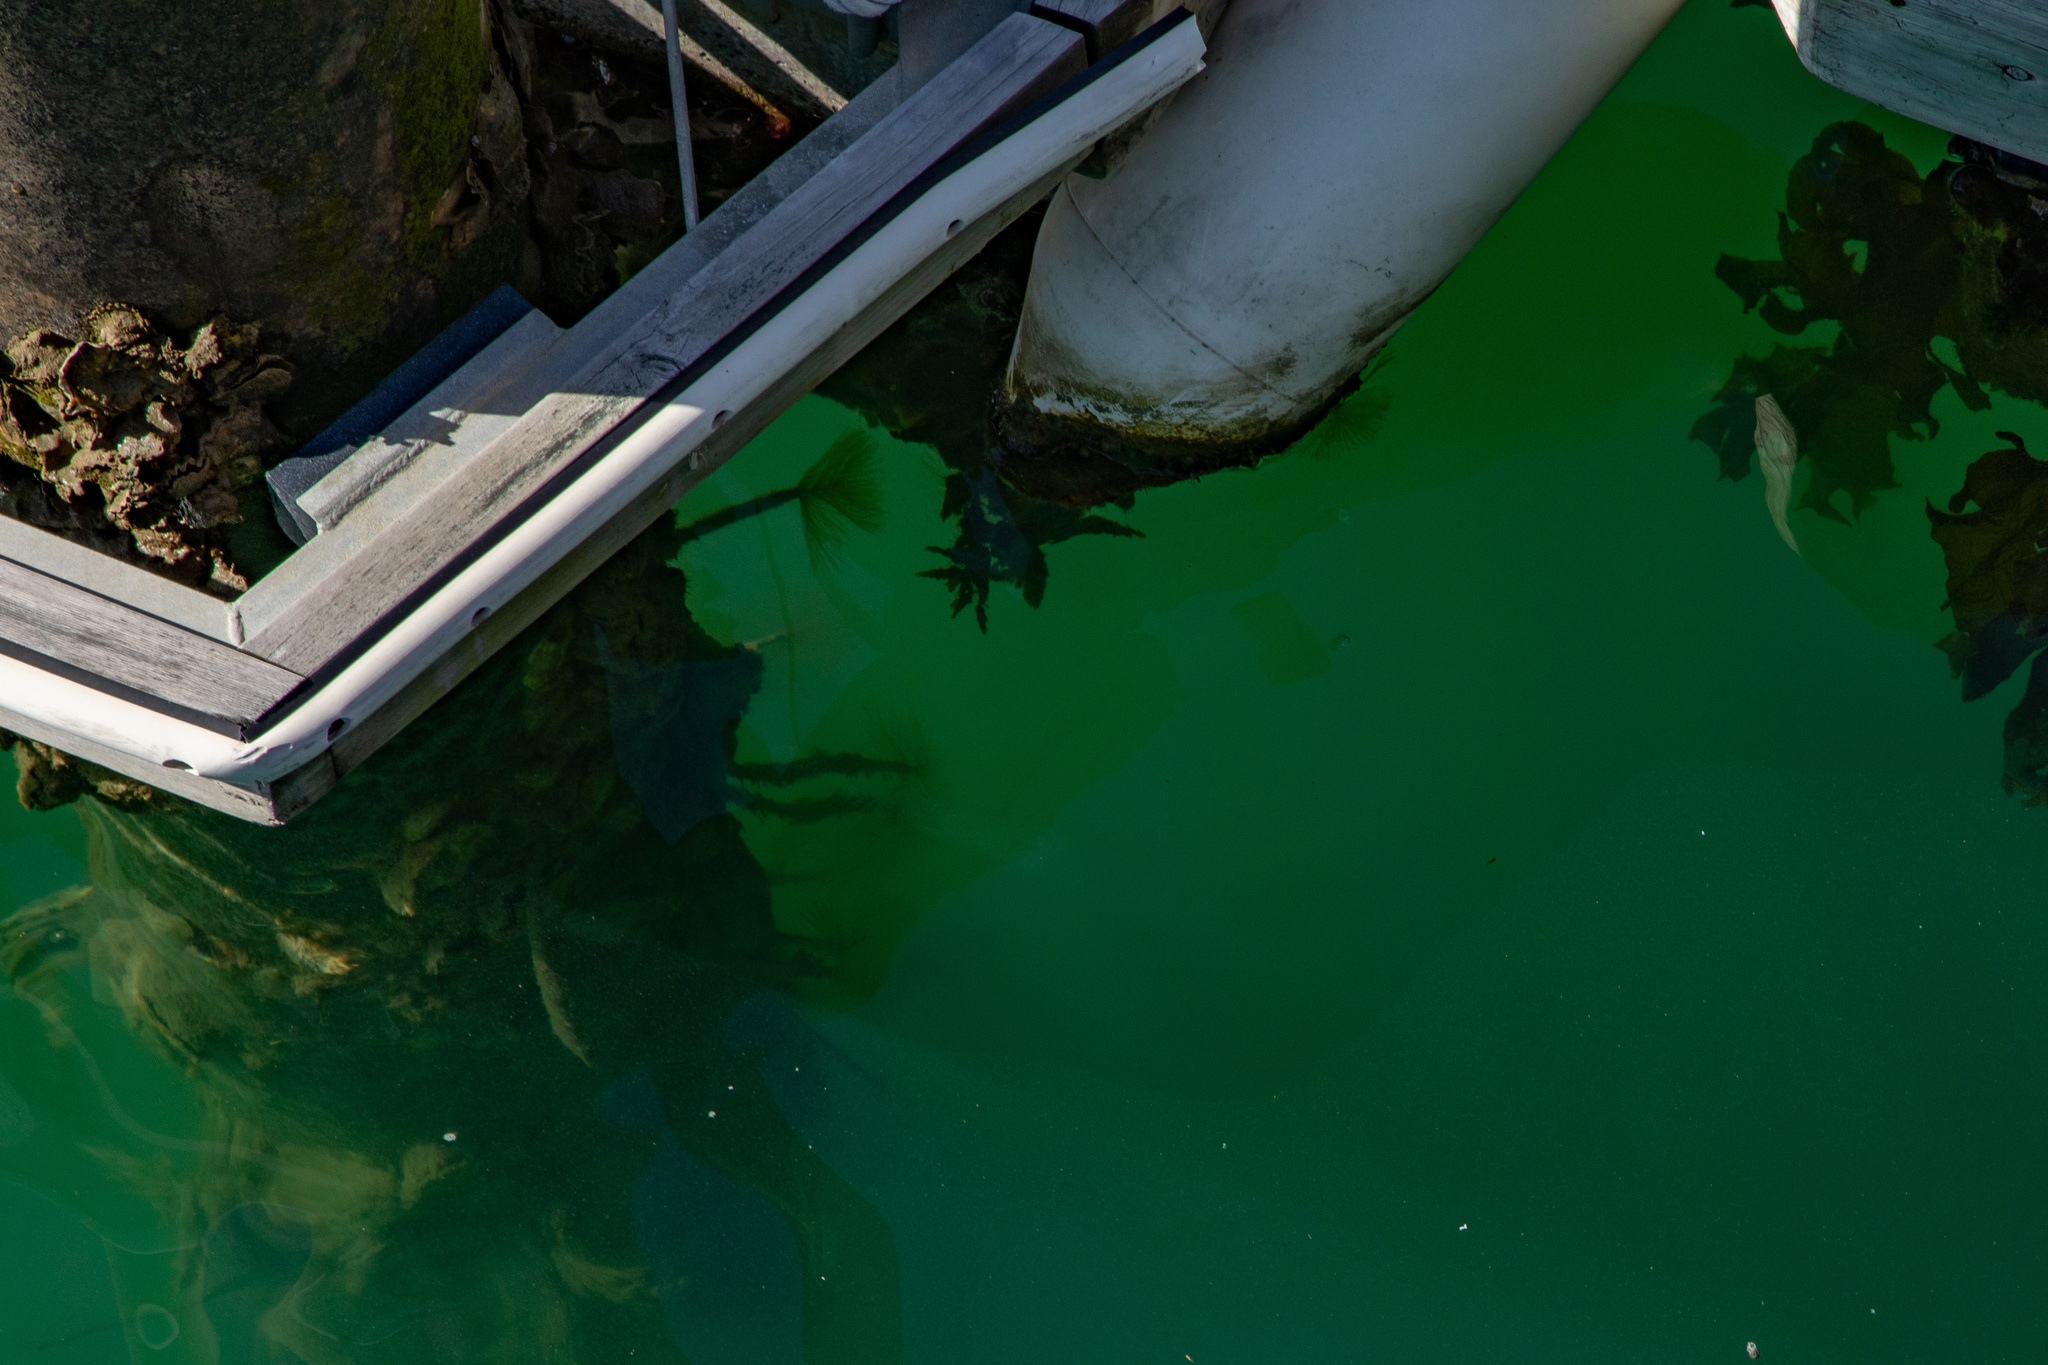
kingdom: Animalia
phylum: Annelida
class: Polychaeta
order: Sabellida
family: Sabellidae
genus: Sabella
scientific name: Sabella spallanzanii
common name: Feather duster worm
